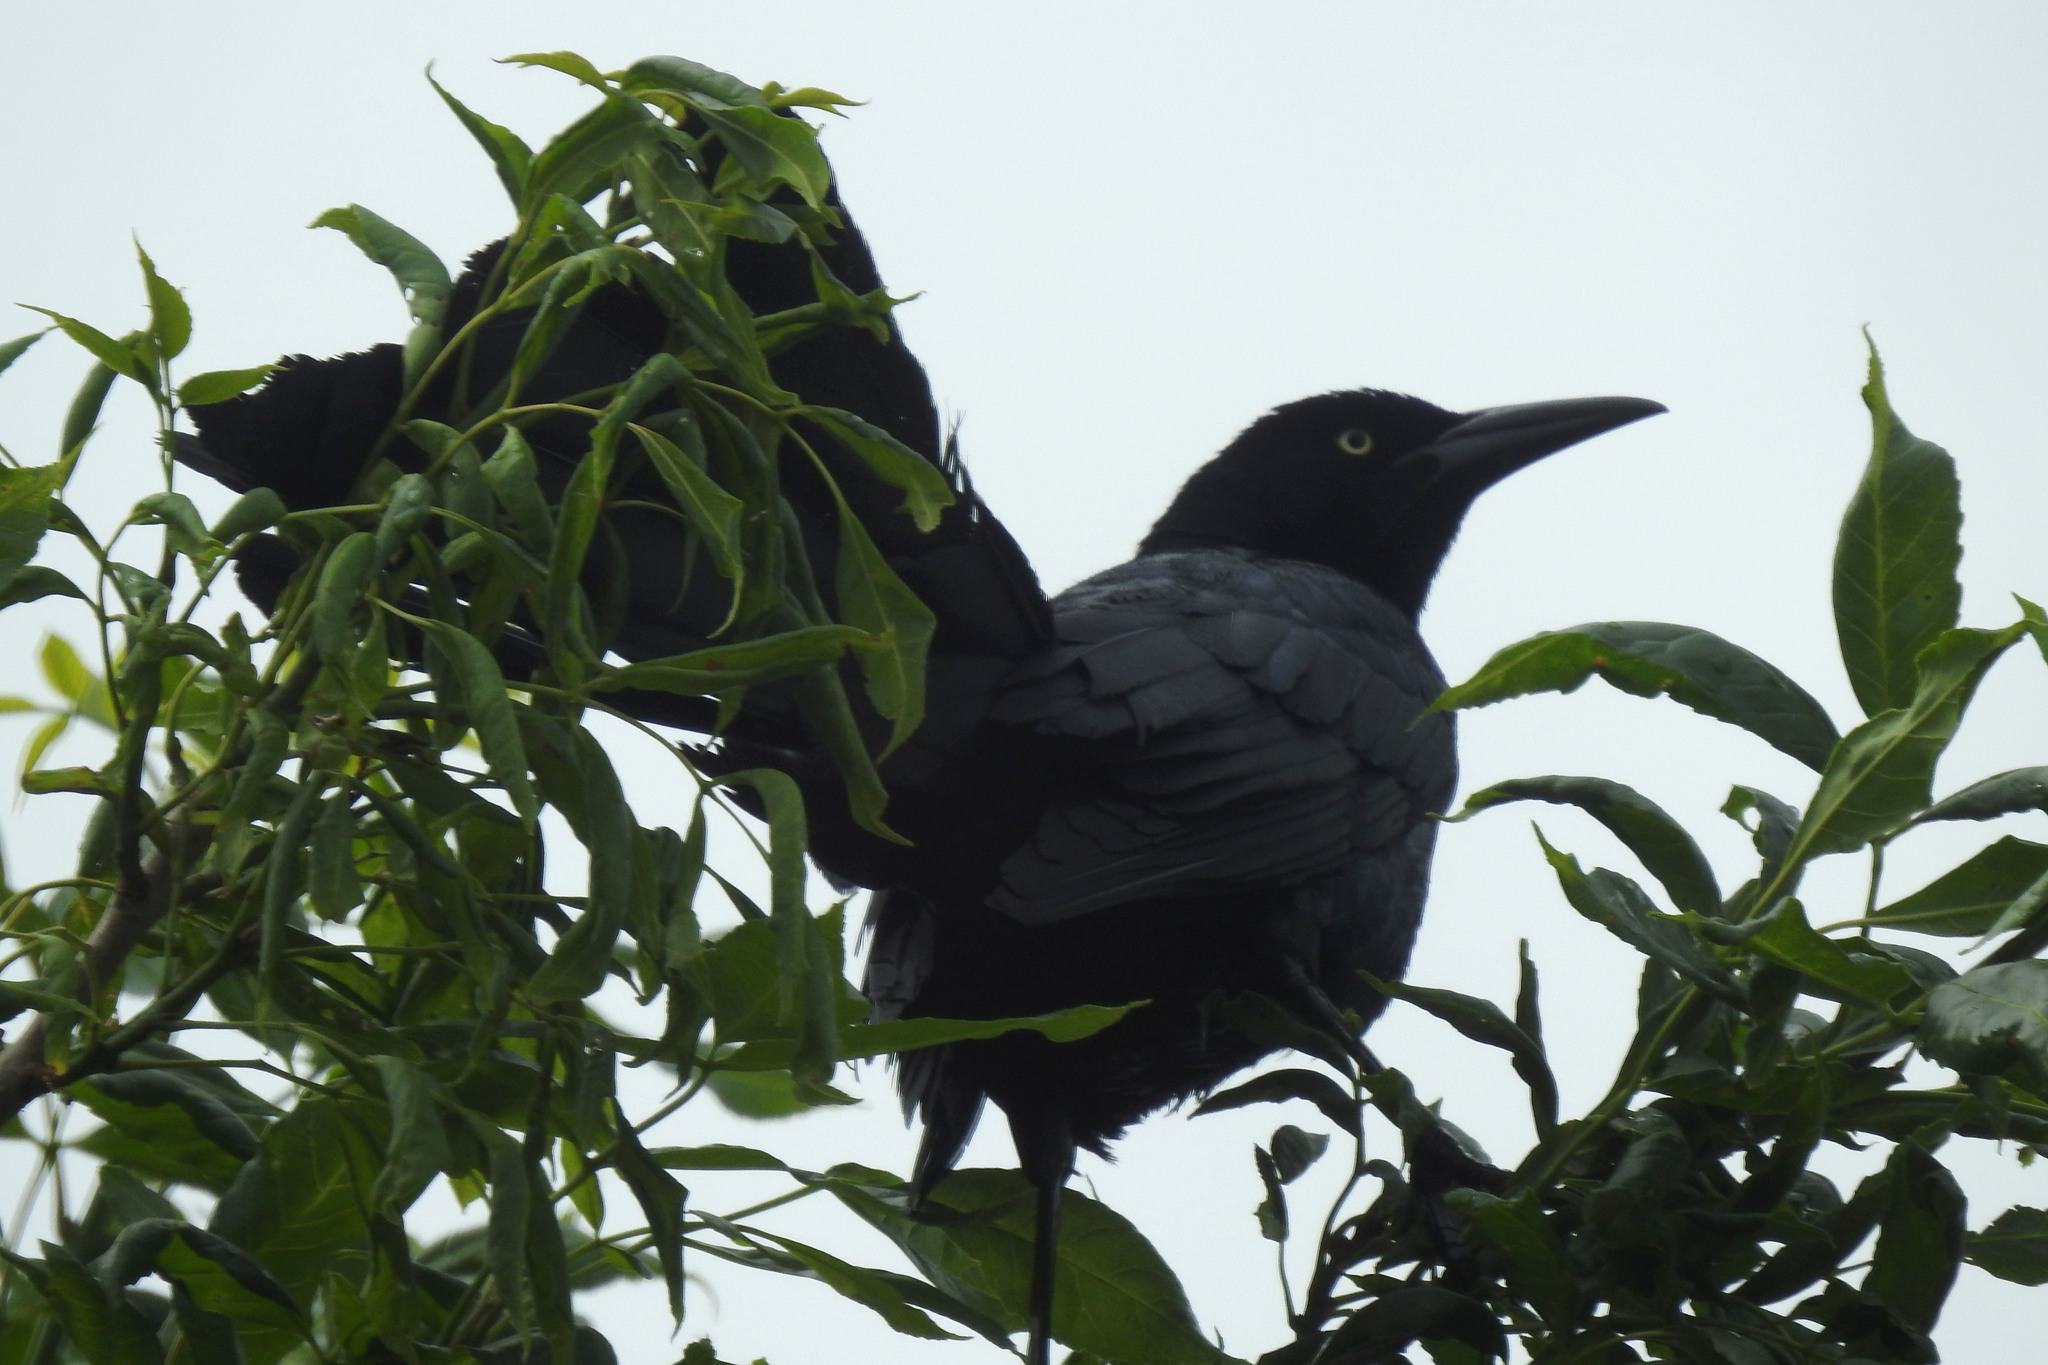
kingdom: Animalia
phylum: Chordata
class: Aves
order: Passeriformes
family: Icteridae
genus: Quiscalus
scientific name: Quiscalus mexicanus
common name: Great-tailed grackle
